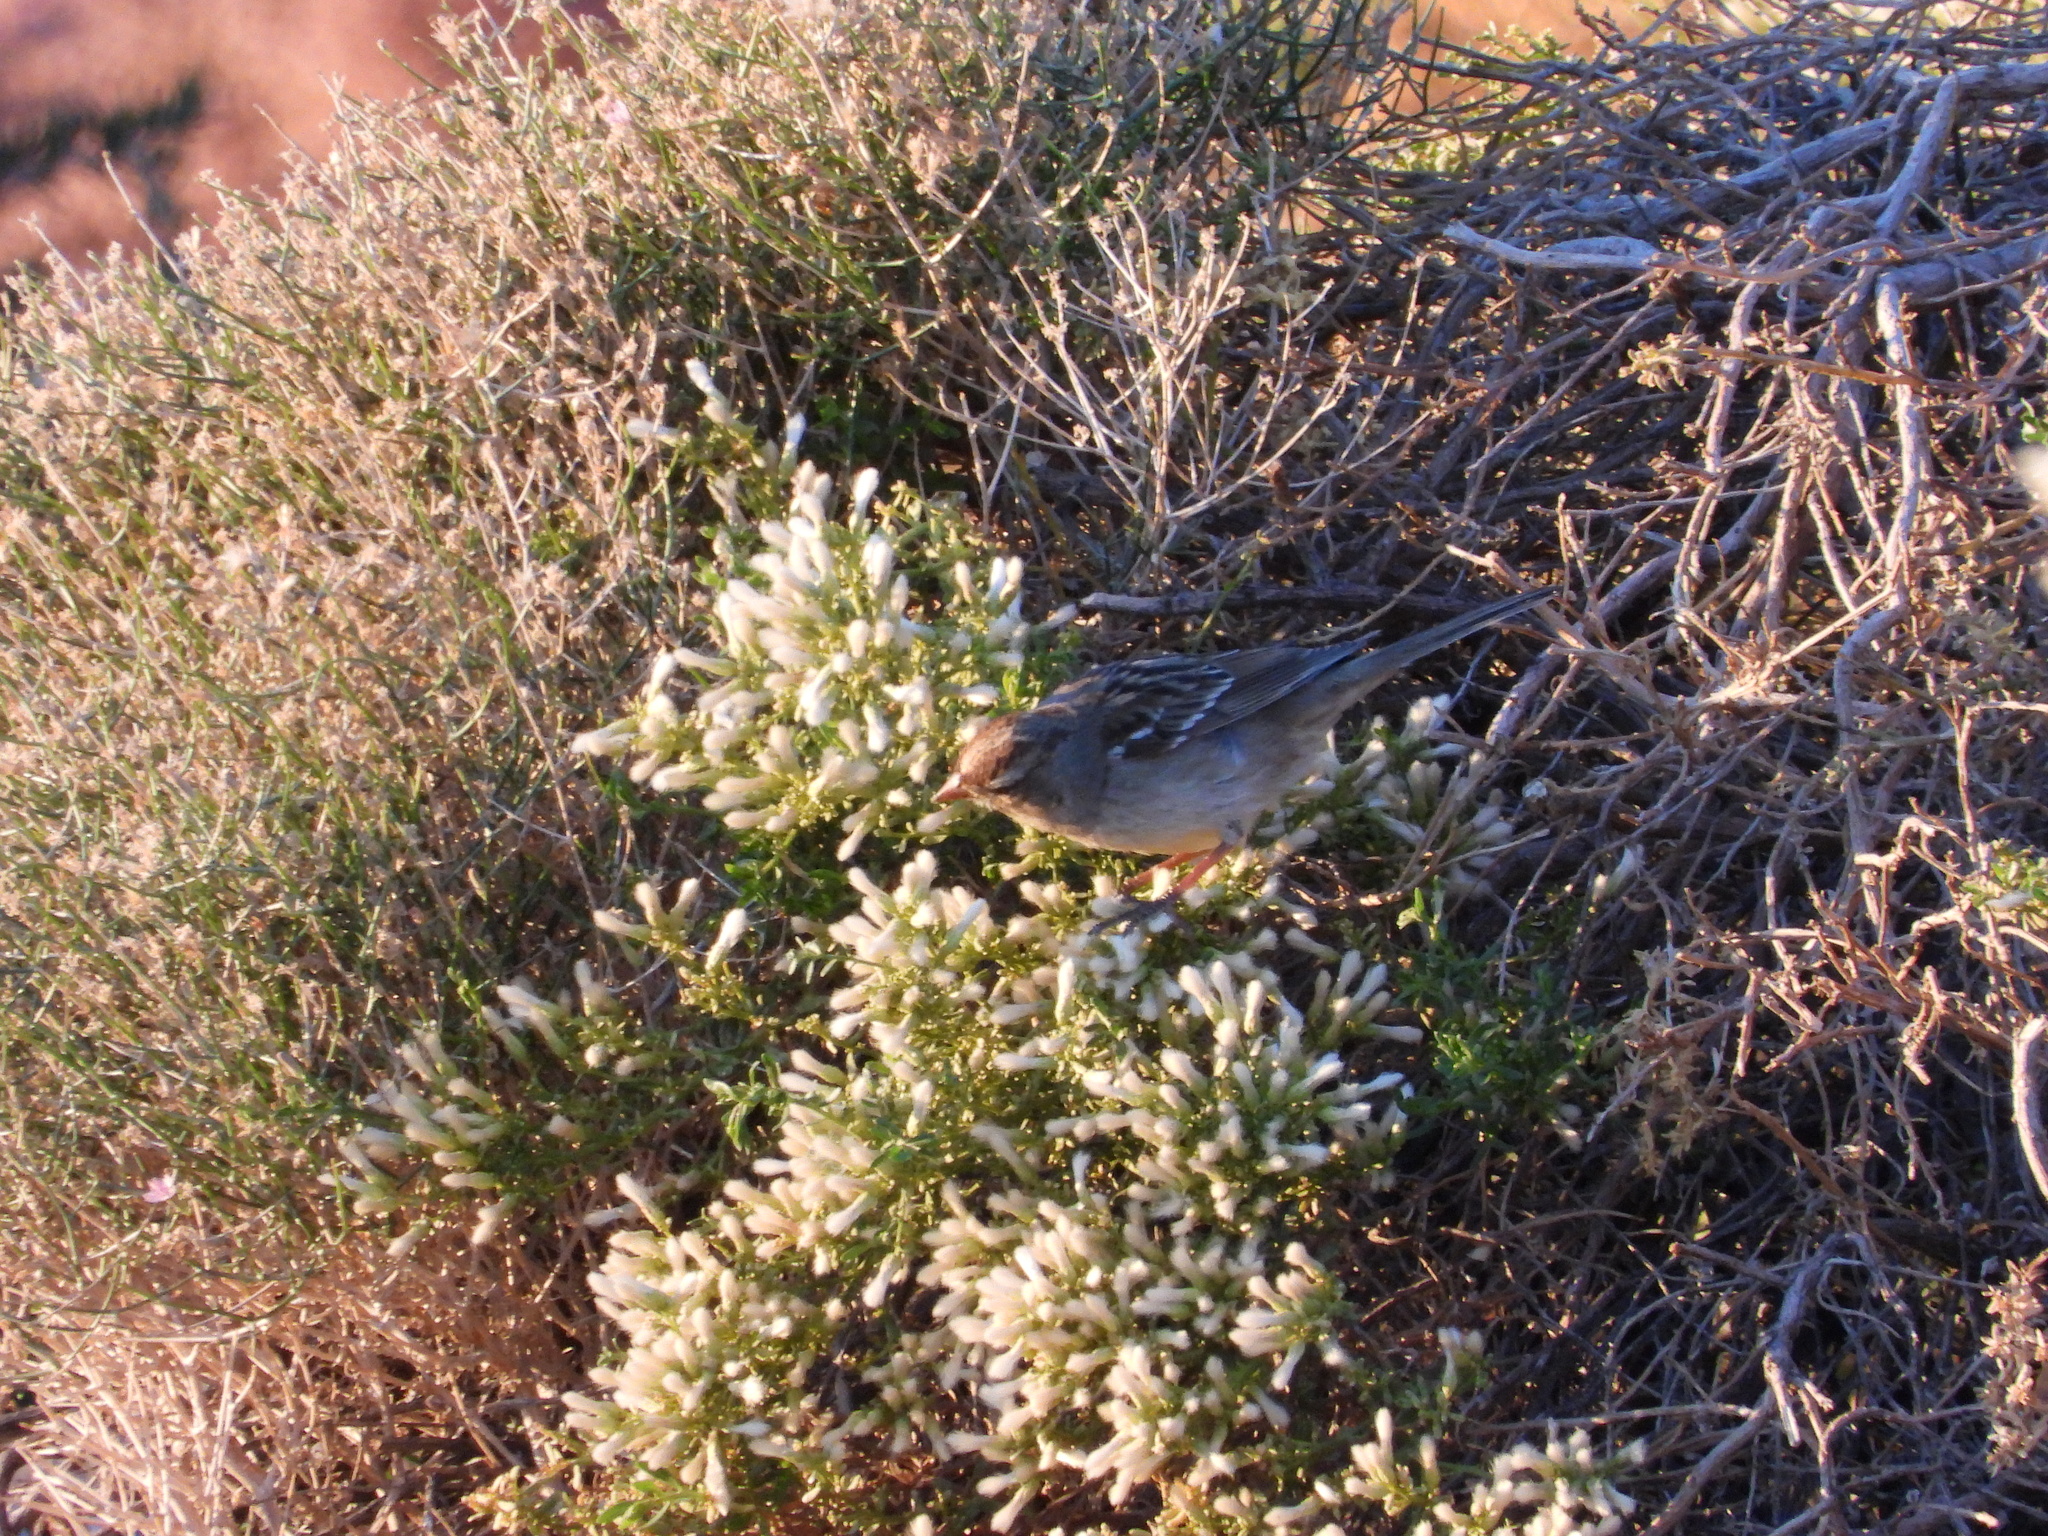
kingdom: Animalia
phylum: Chordata
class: Aves
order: Passeriformes
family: Passerellidae
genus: Zonotrichia
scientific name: Zonotrichia leucophrys
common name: White-crowned sparrow
